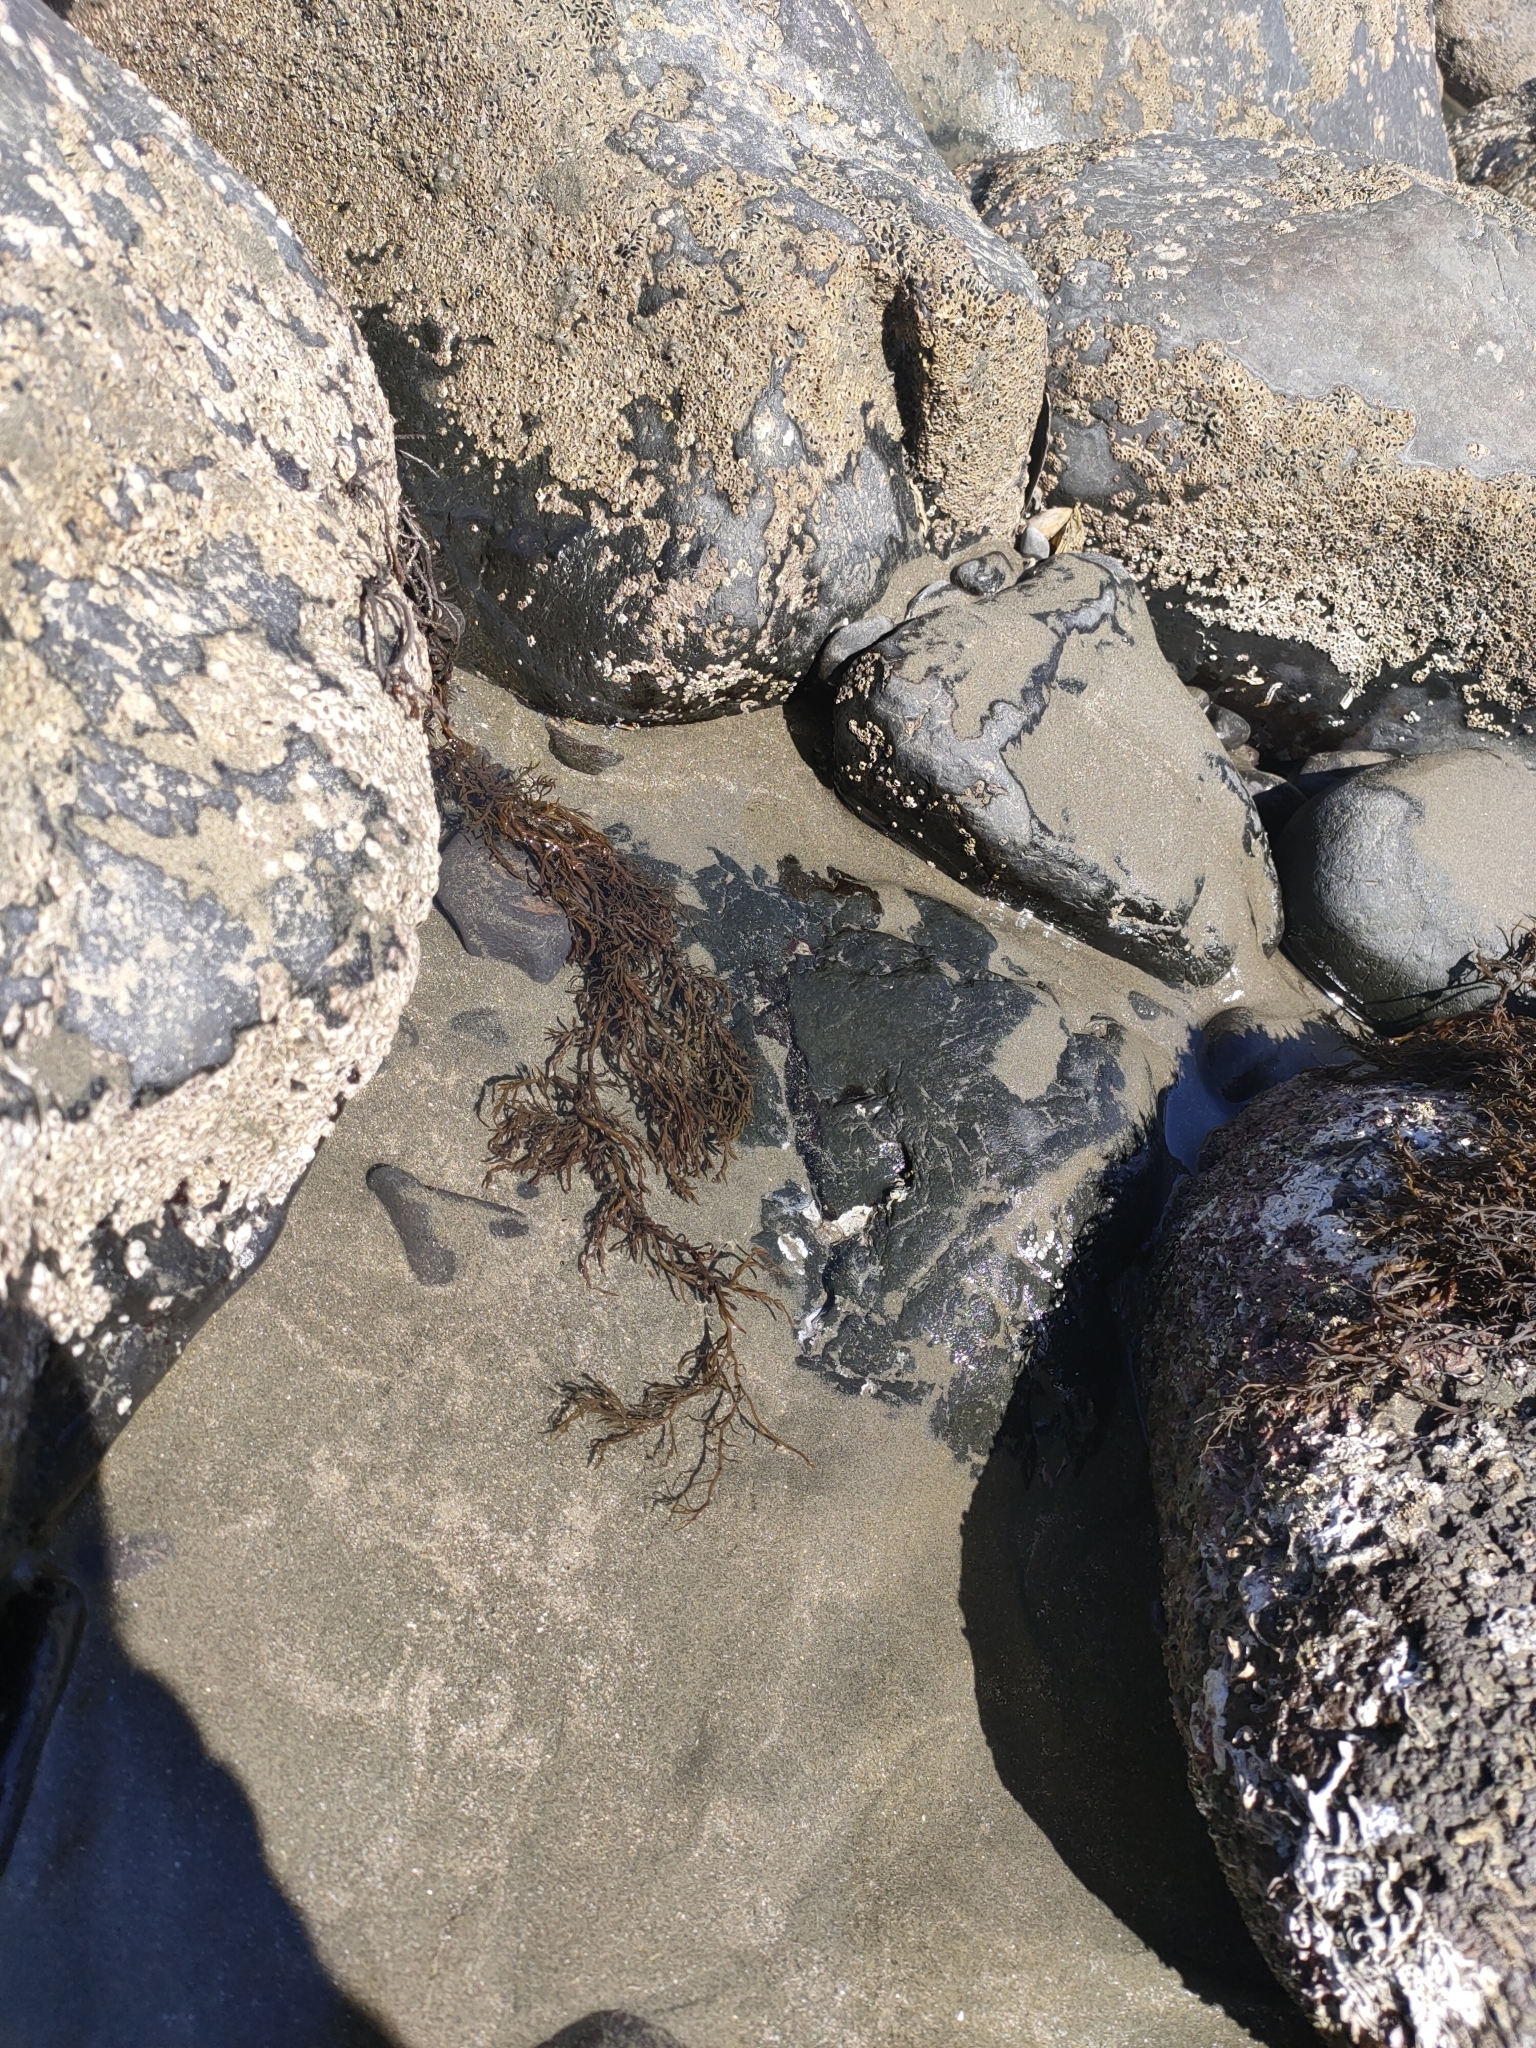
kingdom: Chromista
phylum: Ochrophyta
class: Phaeophyceae
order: Scytothamnales
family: Scytothamnaceae
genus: Scytothamnus
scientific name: Scytothamnus australis
